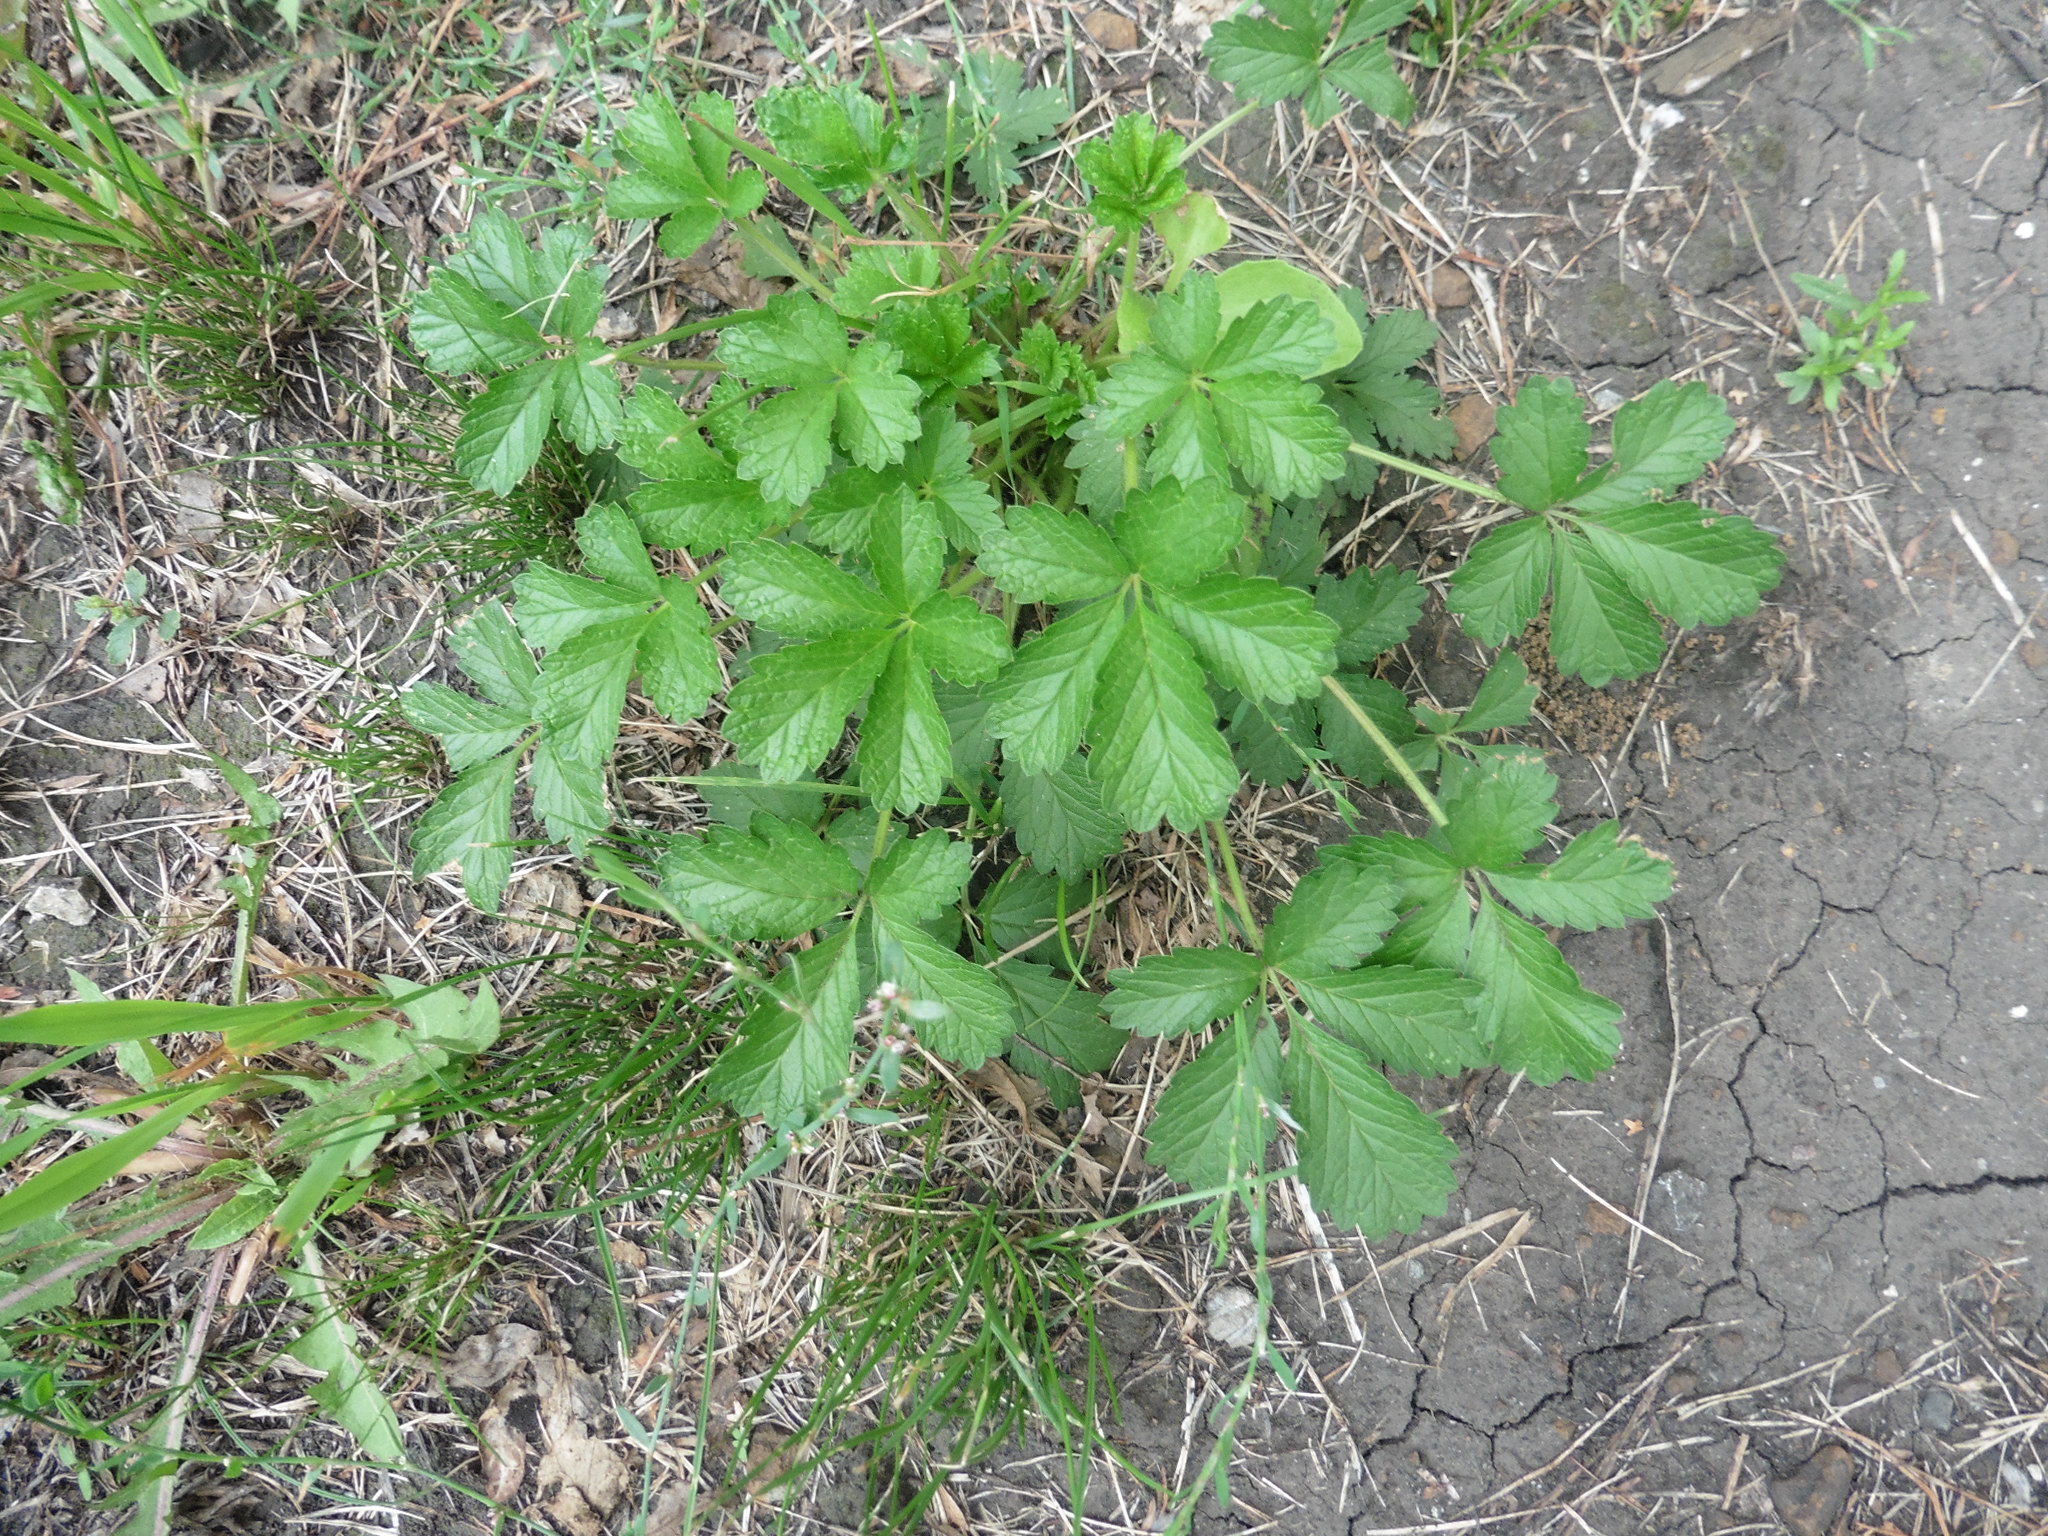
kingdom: Plantae
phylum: Tracheophyta
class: Magnoliopsida
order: Rosales
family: Rosaceae
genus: Potentilla
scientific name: Potentilla intermedia
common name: Downy cinquefoil
